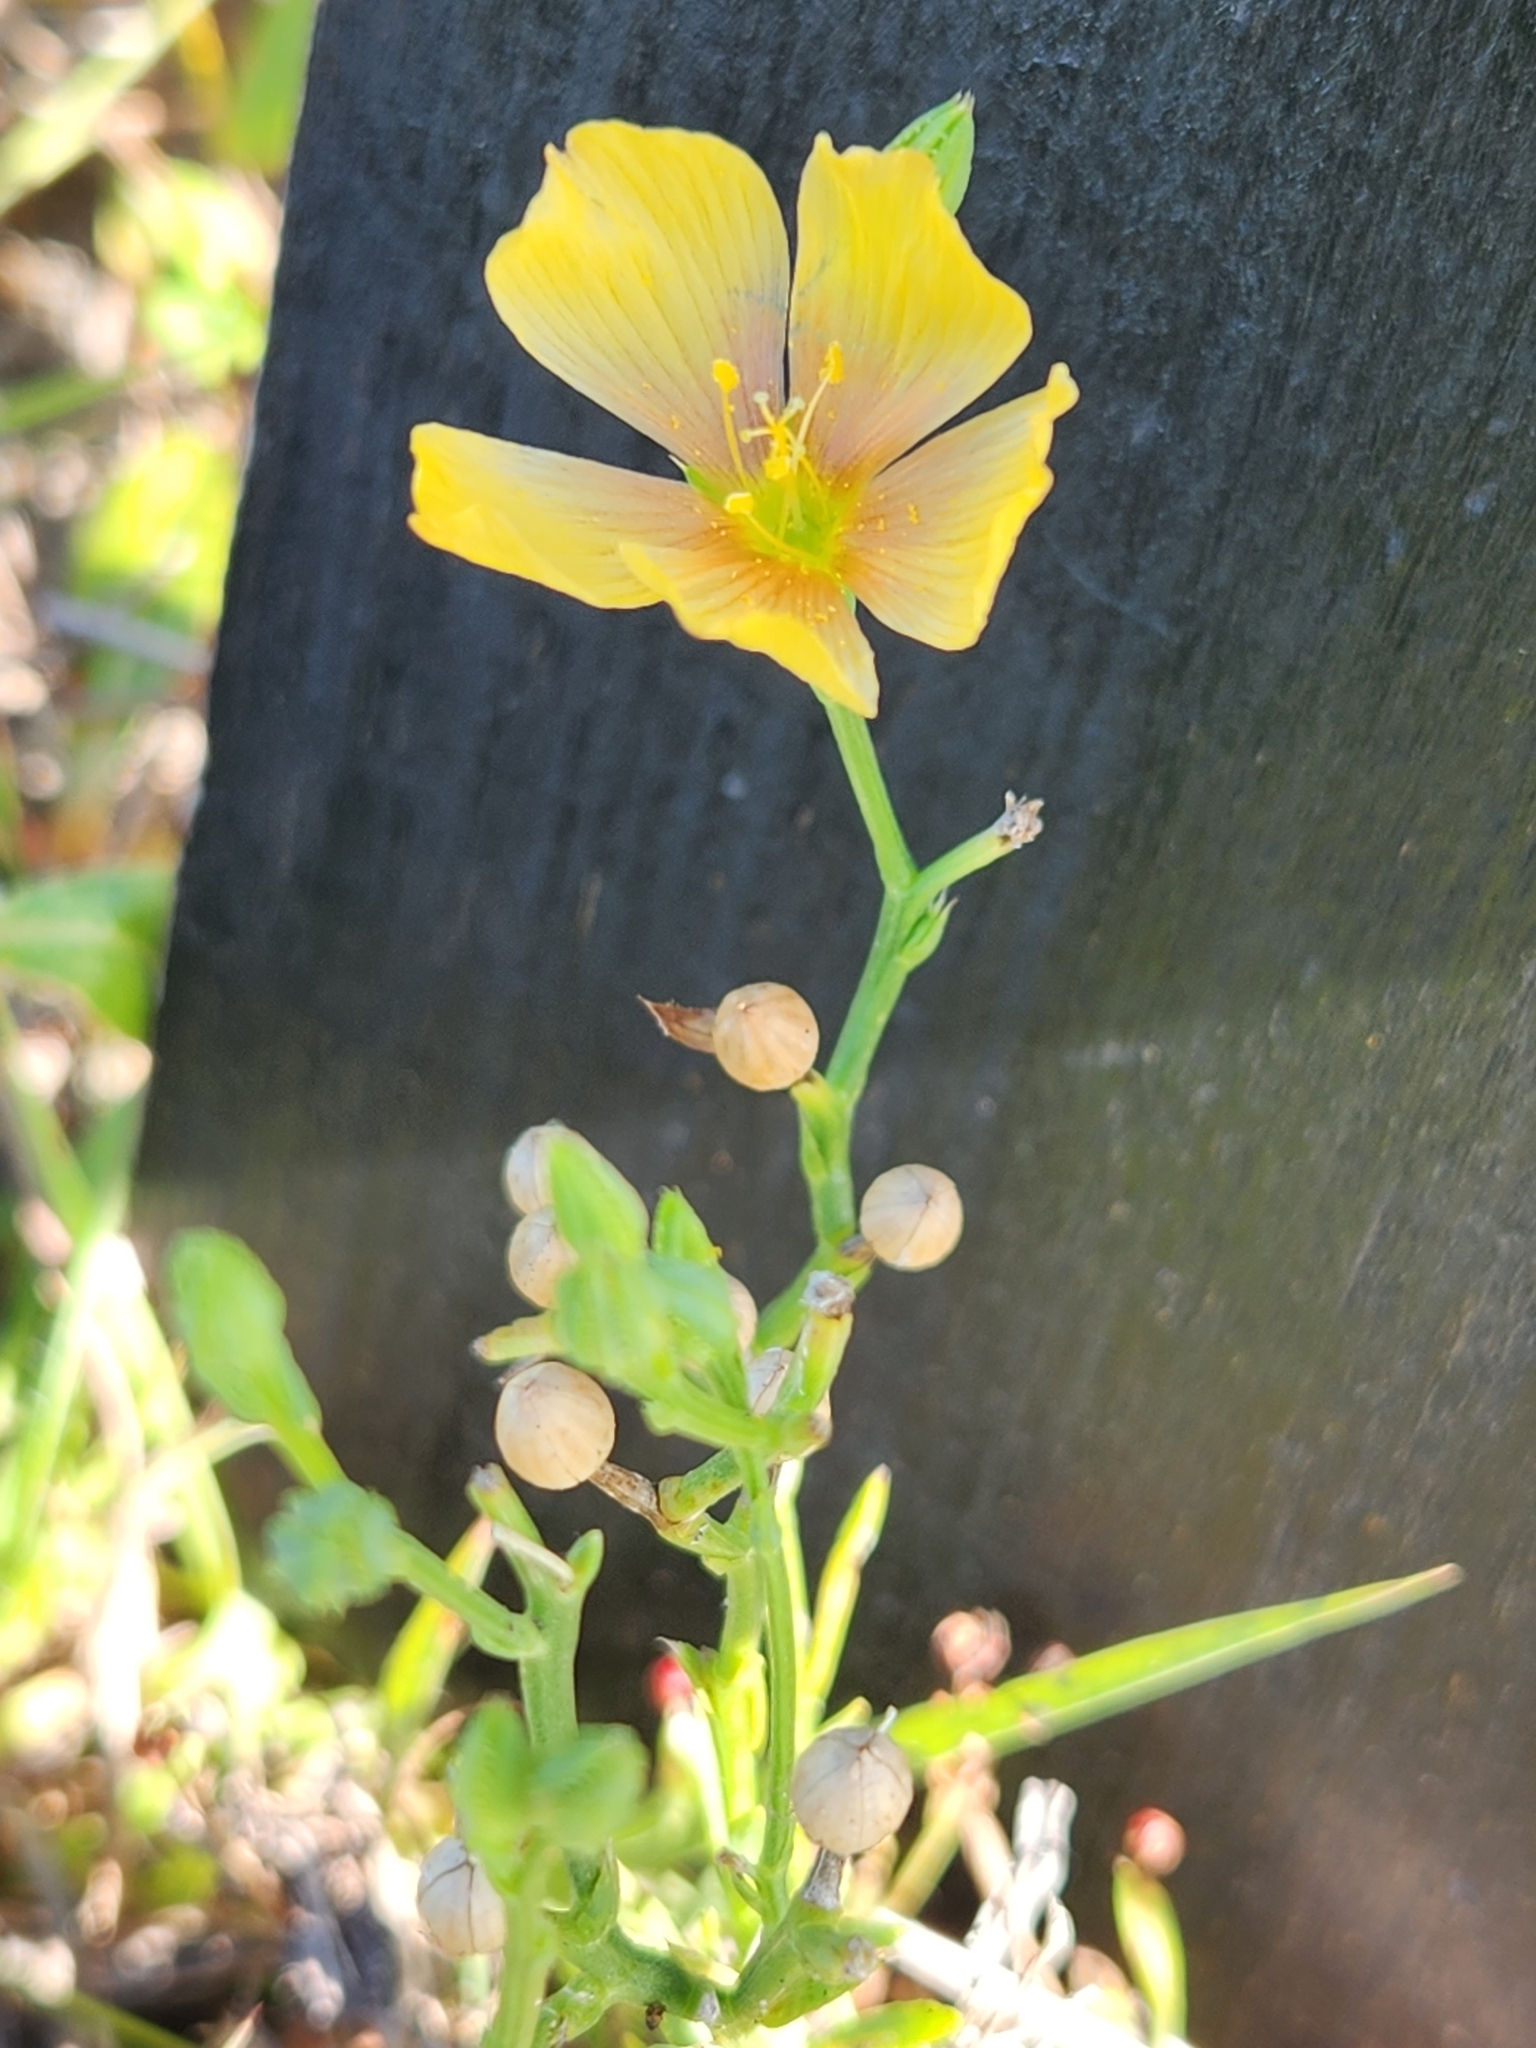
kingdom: Plantae
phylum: Tracheophyta
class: Magnoliopsida
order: Malpighiales
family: Linaceae
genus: Linum
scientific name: Linum rigidum
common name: Stiff-stem flax
